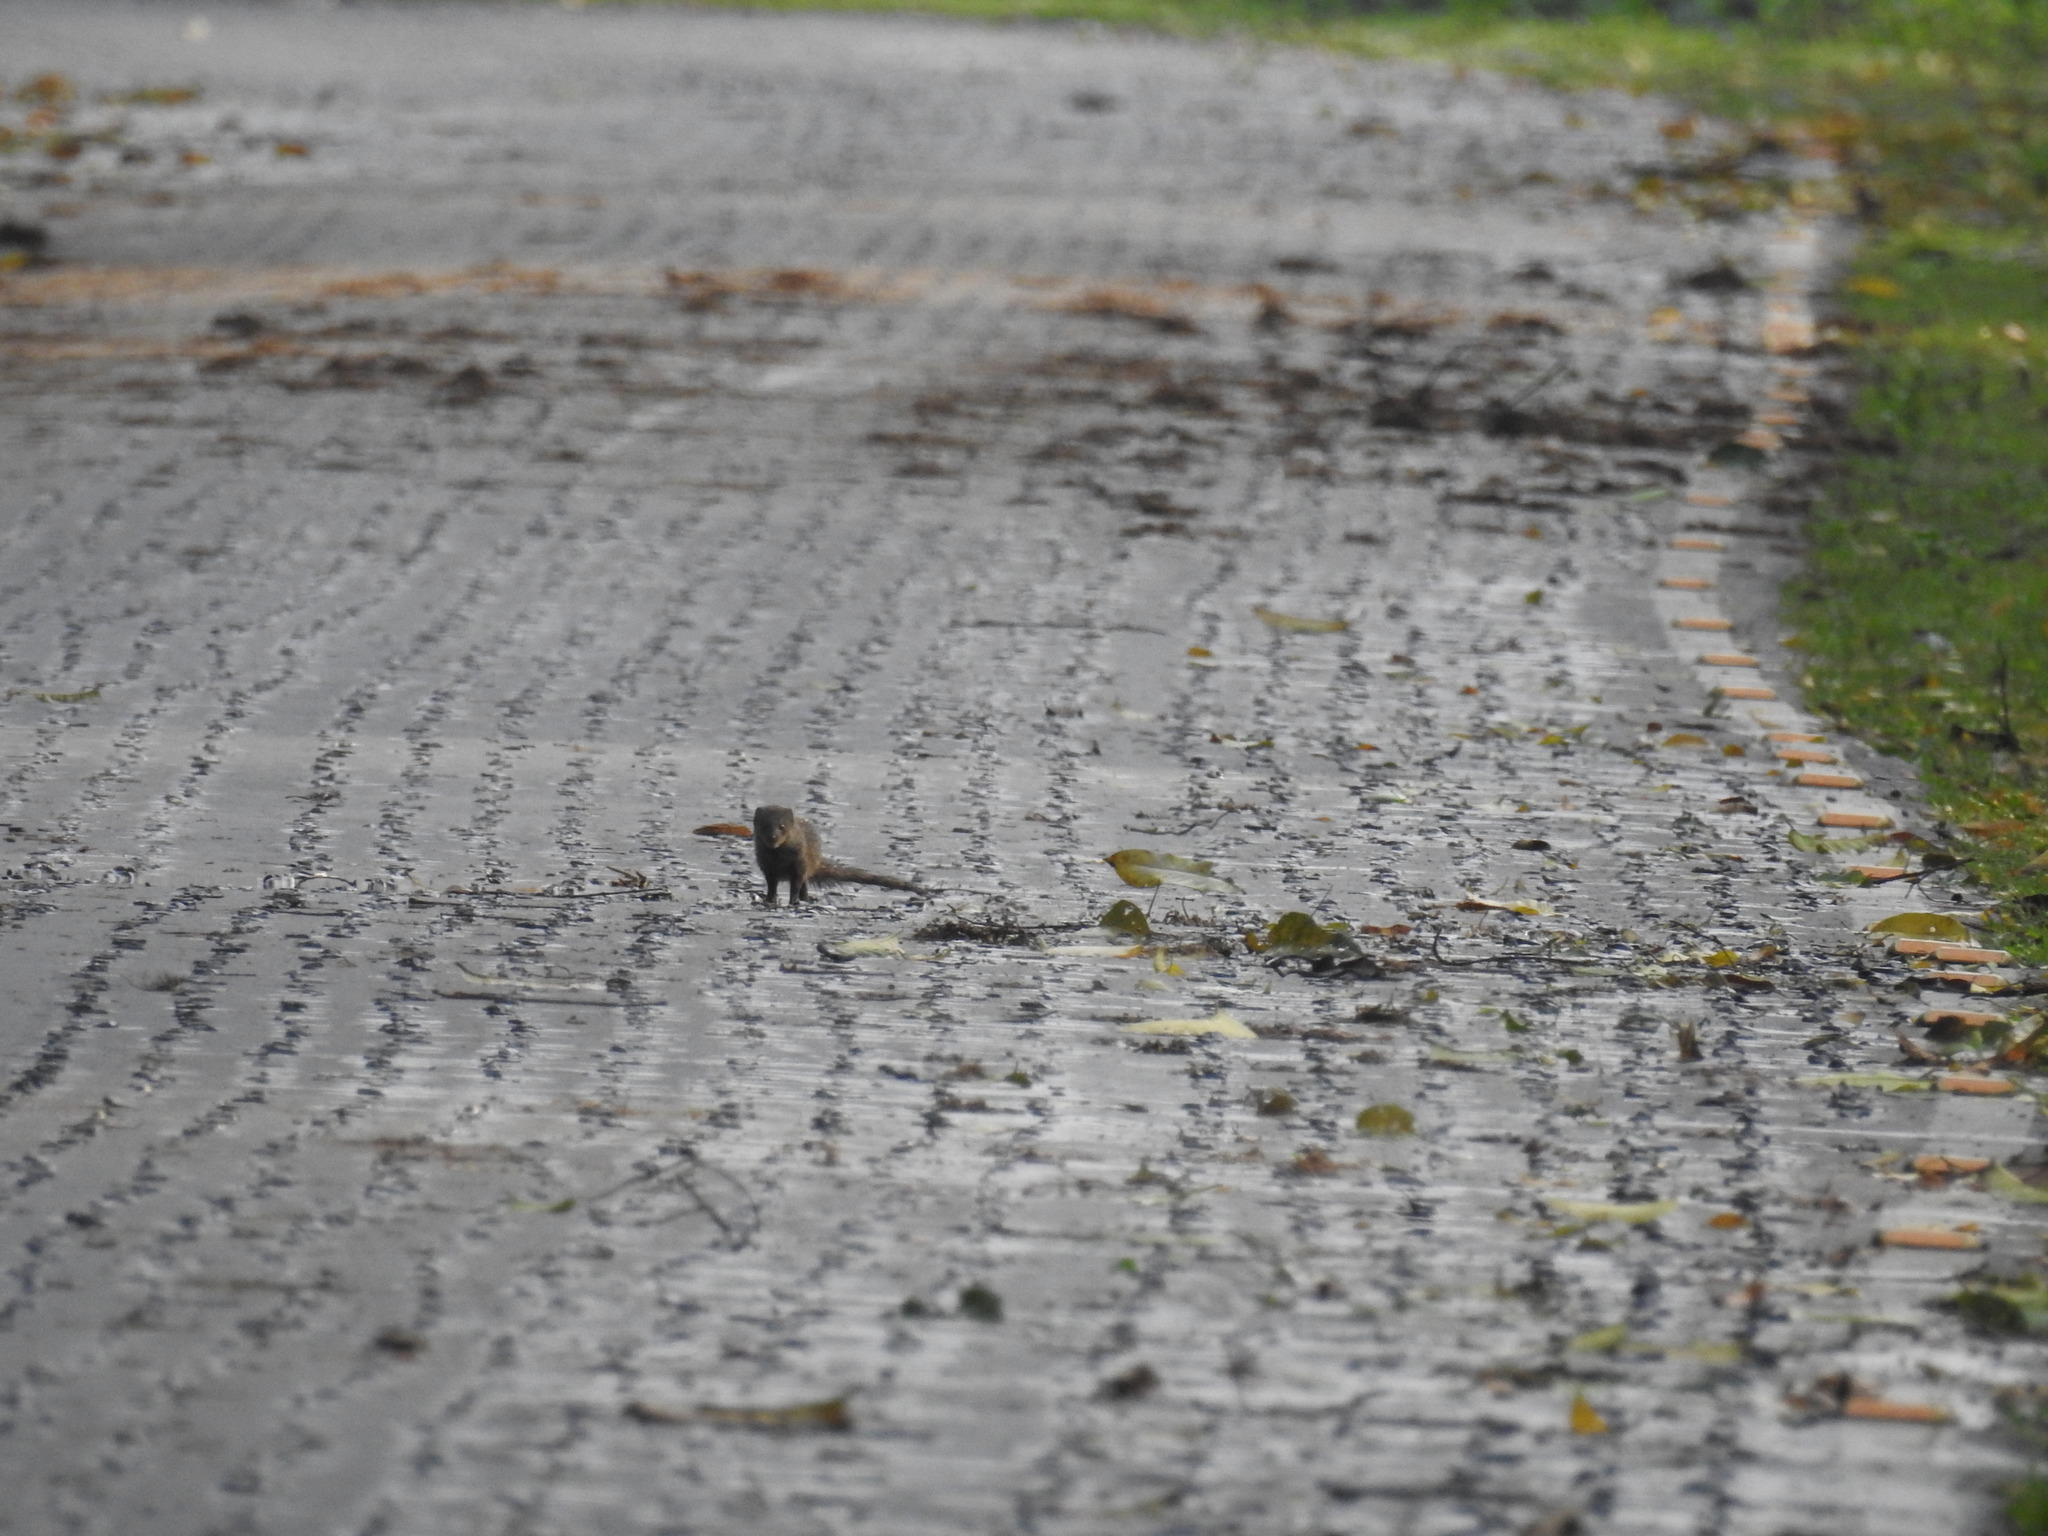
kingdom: Animalia
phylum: Chordata
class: Mammalia
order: Carnivora
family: Herpestidae
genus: Herpestes
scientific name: Herpestes javanicus
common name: Small asian mongoose
